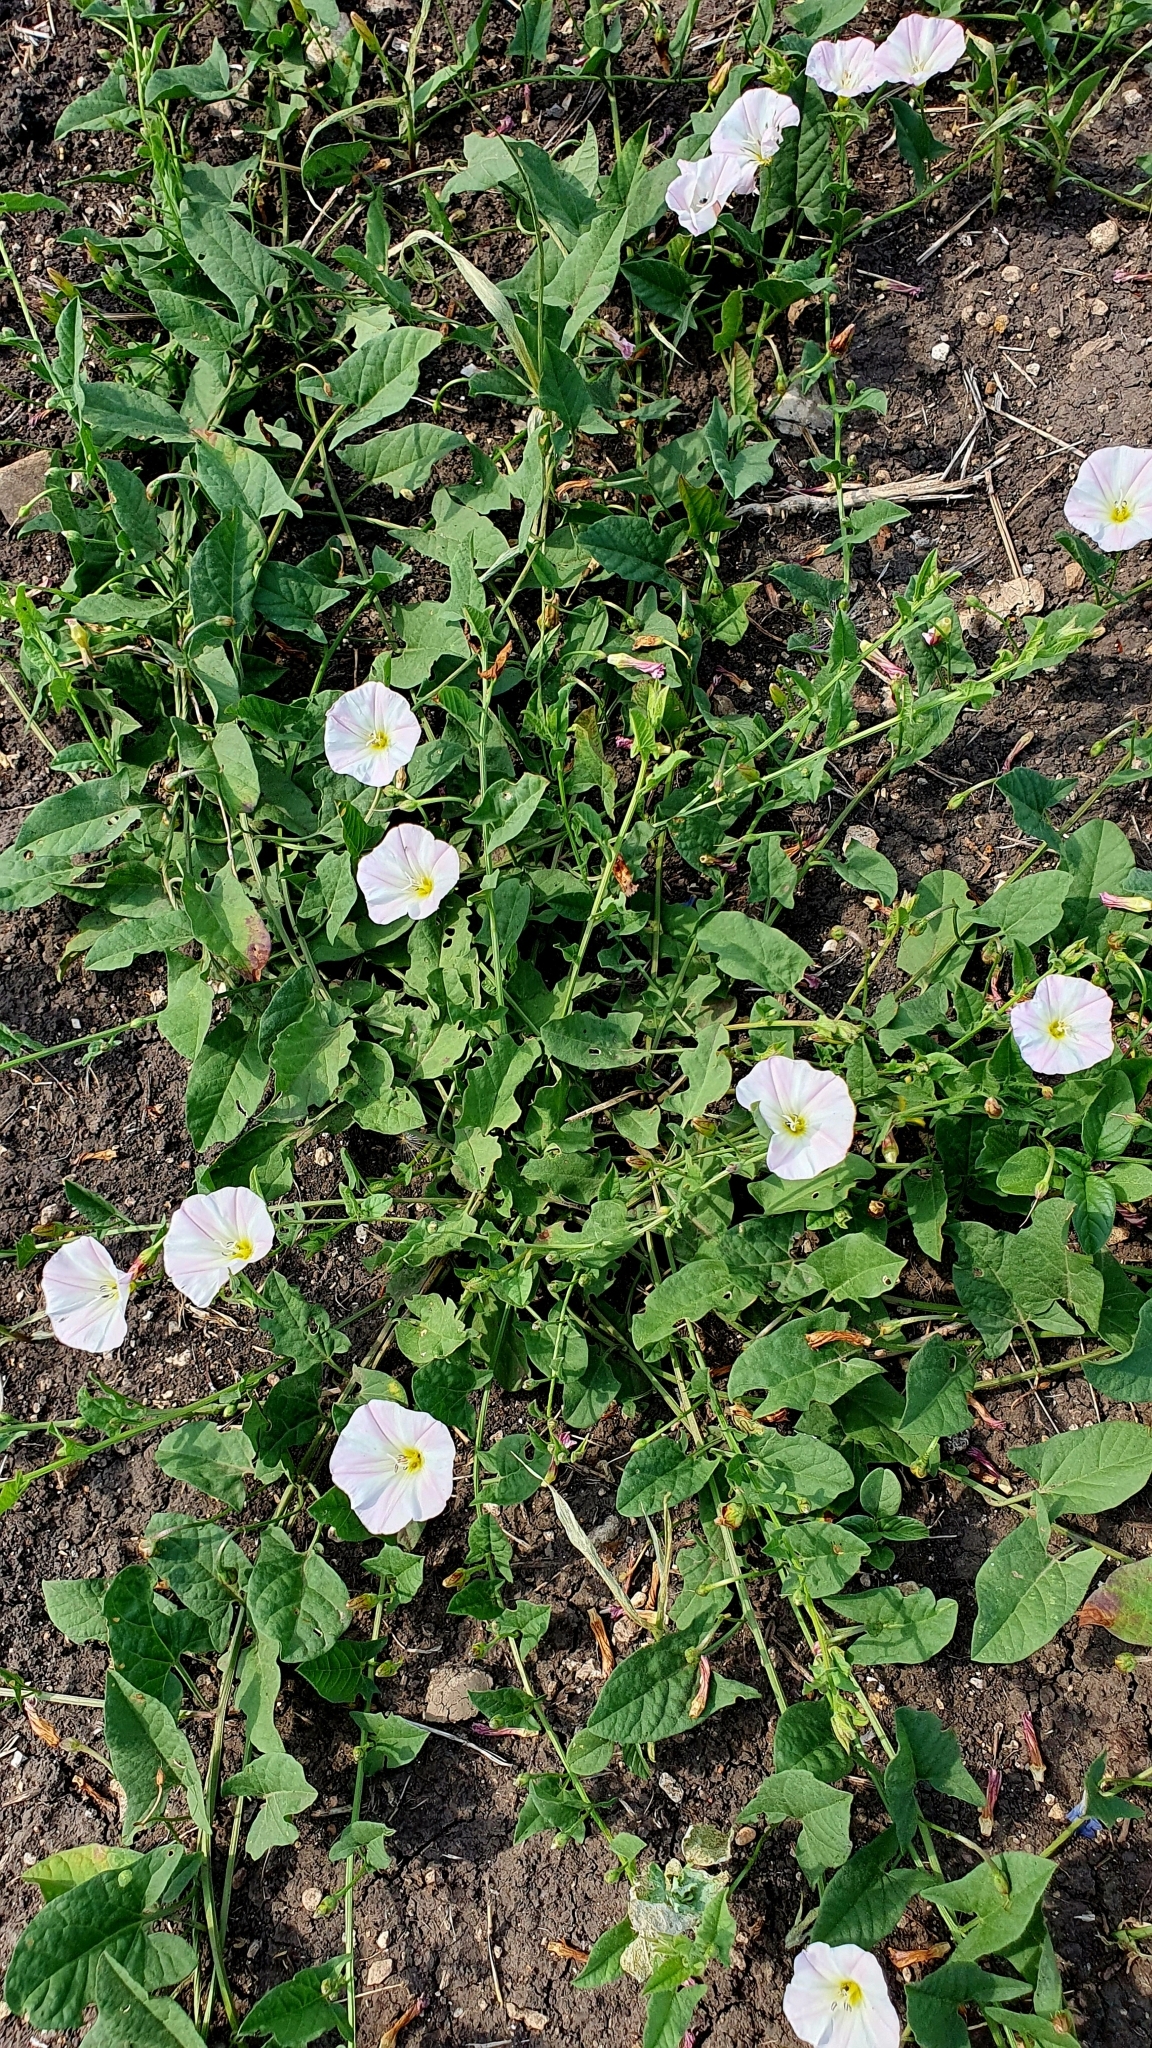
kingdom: Plantae
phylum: Tracheophyta
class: Magnoliopsida
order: Solanales
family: Convolvulaceae
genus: Convolvulus
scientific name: Convolvulus arvensis
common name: Field bindweed
